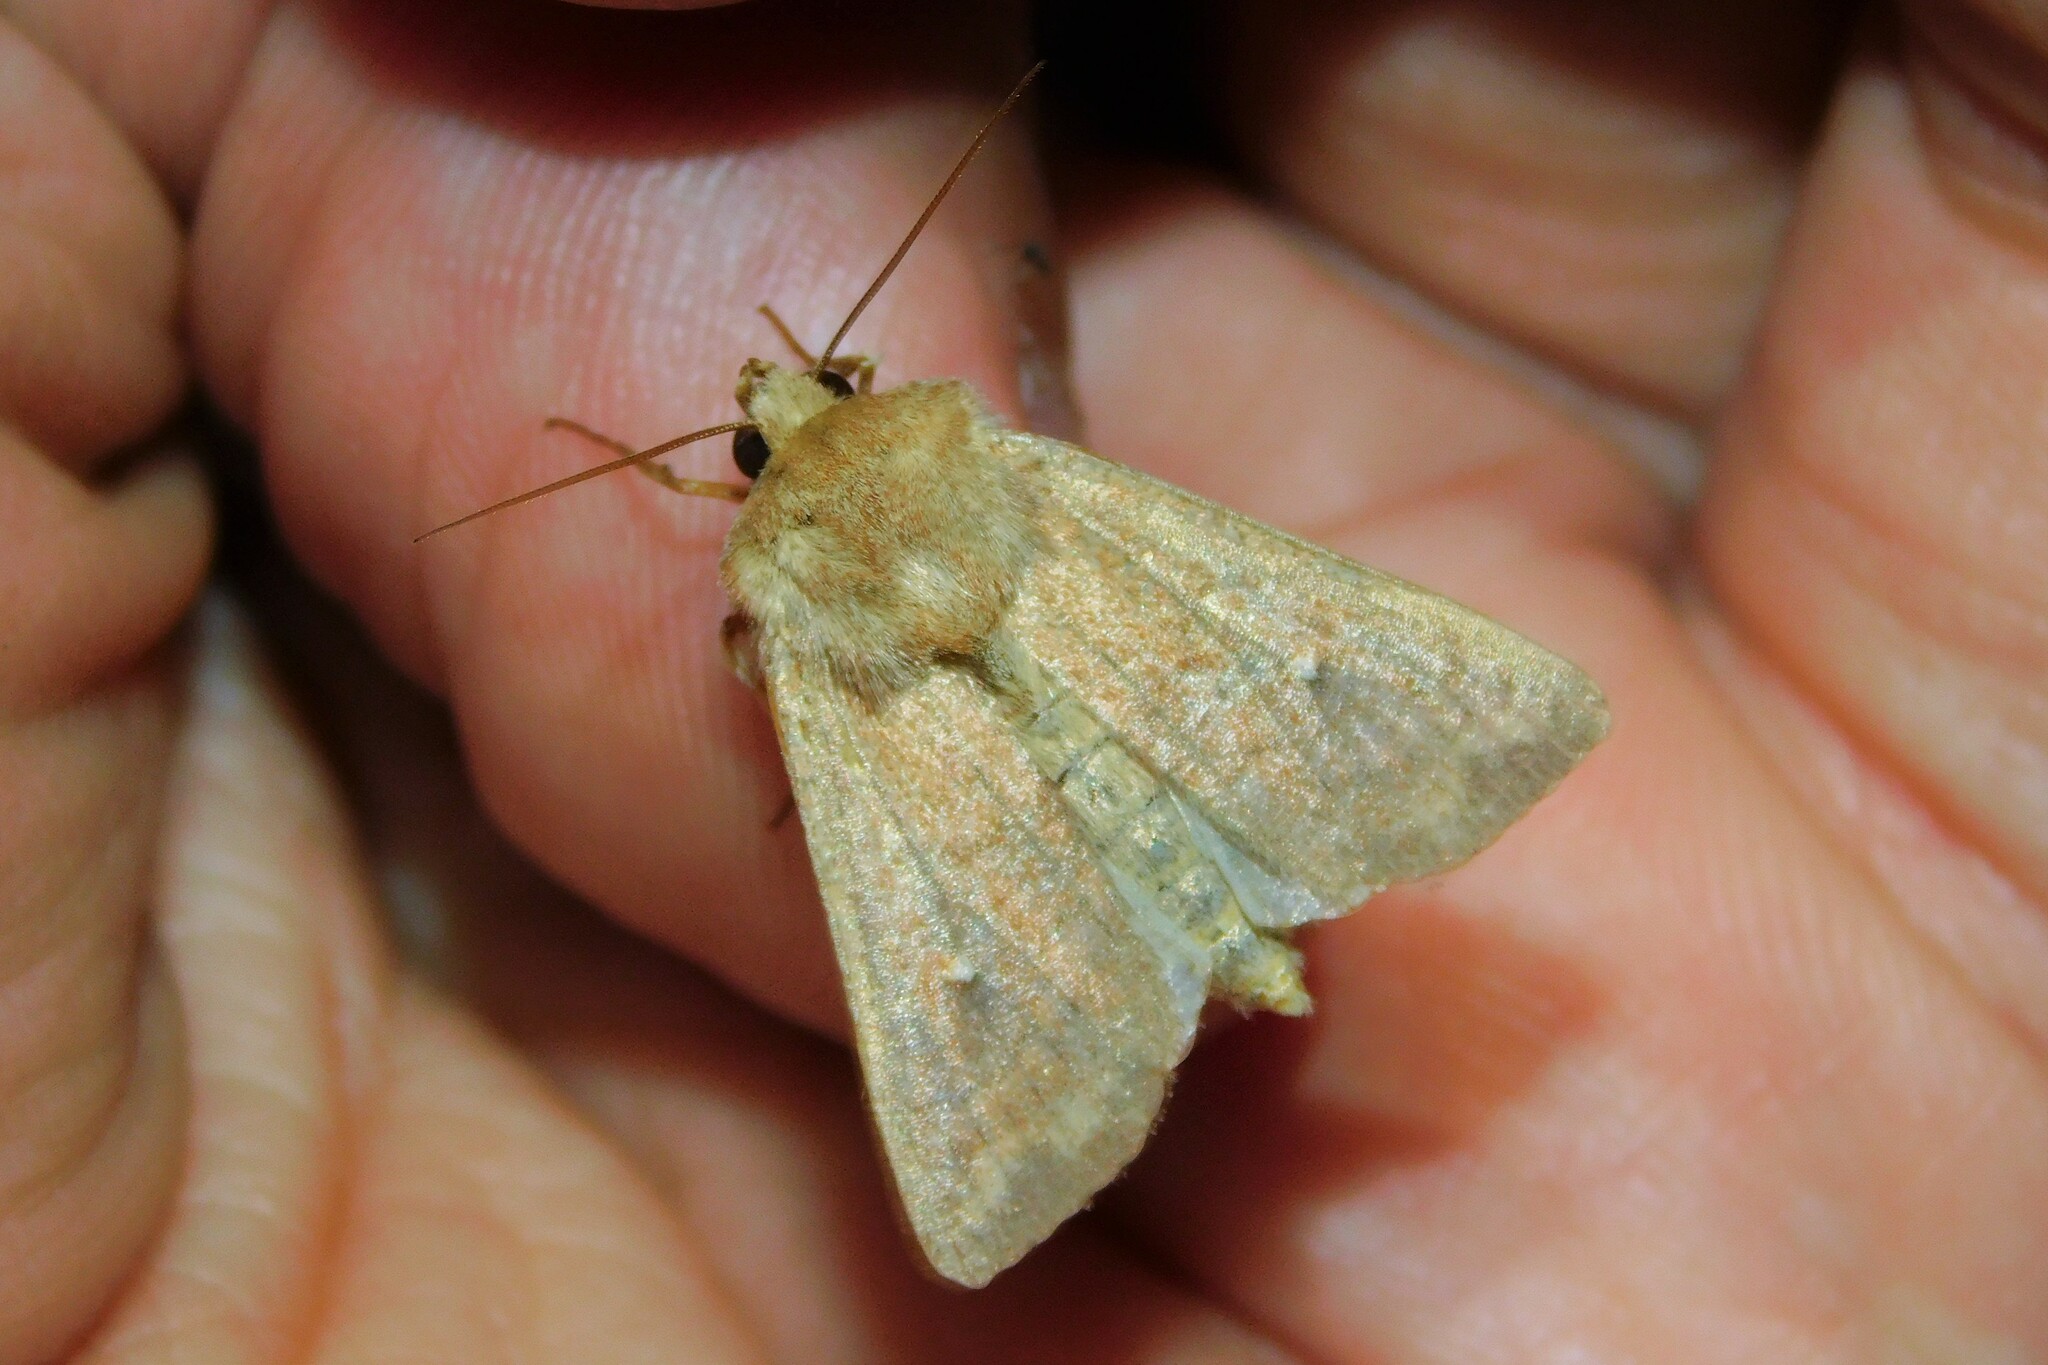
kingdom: Animalia
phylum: Arthropoda
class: Insecta
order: Lepidoptera
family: Noctuidae
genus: Mythimna
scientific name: Mythimna albipuncta
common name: White-point
